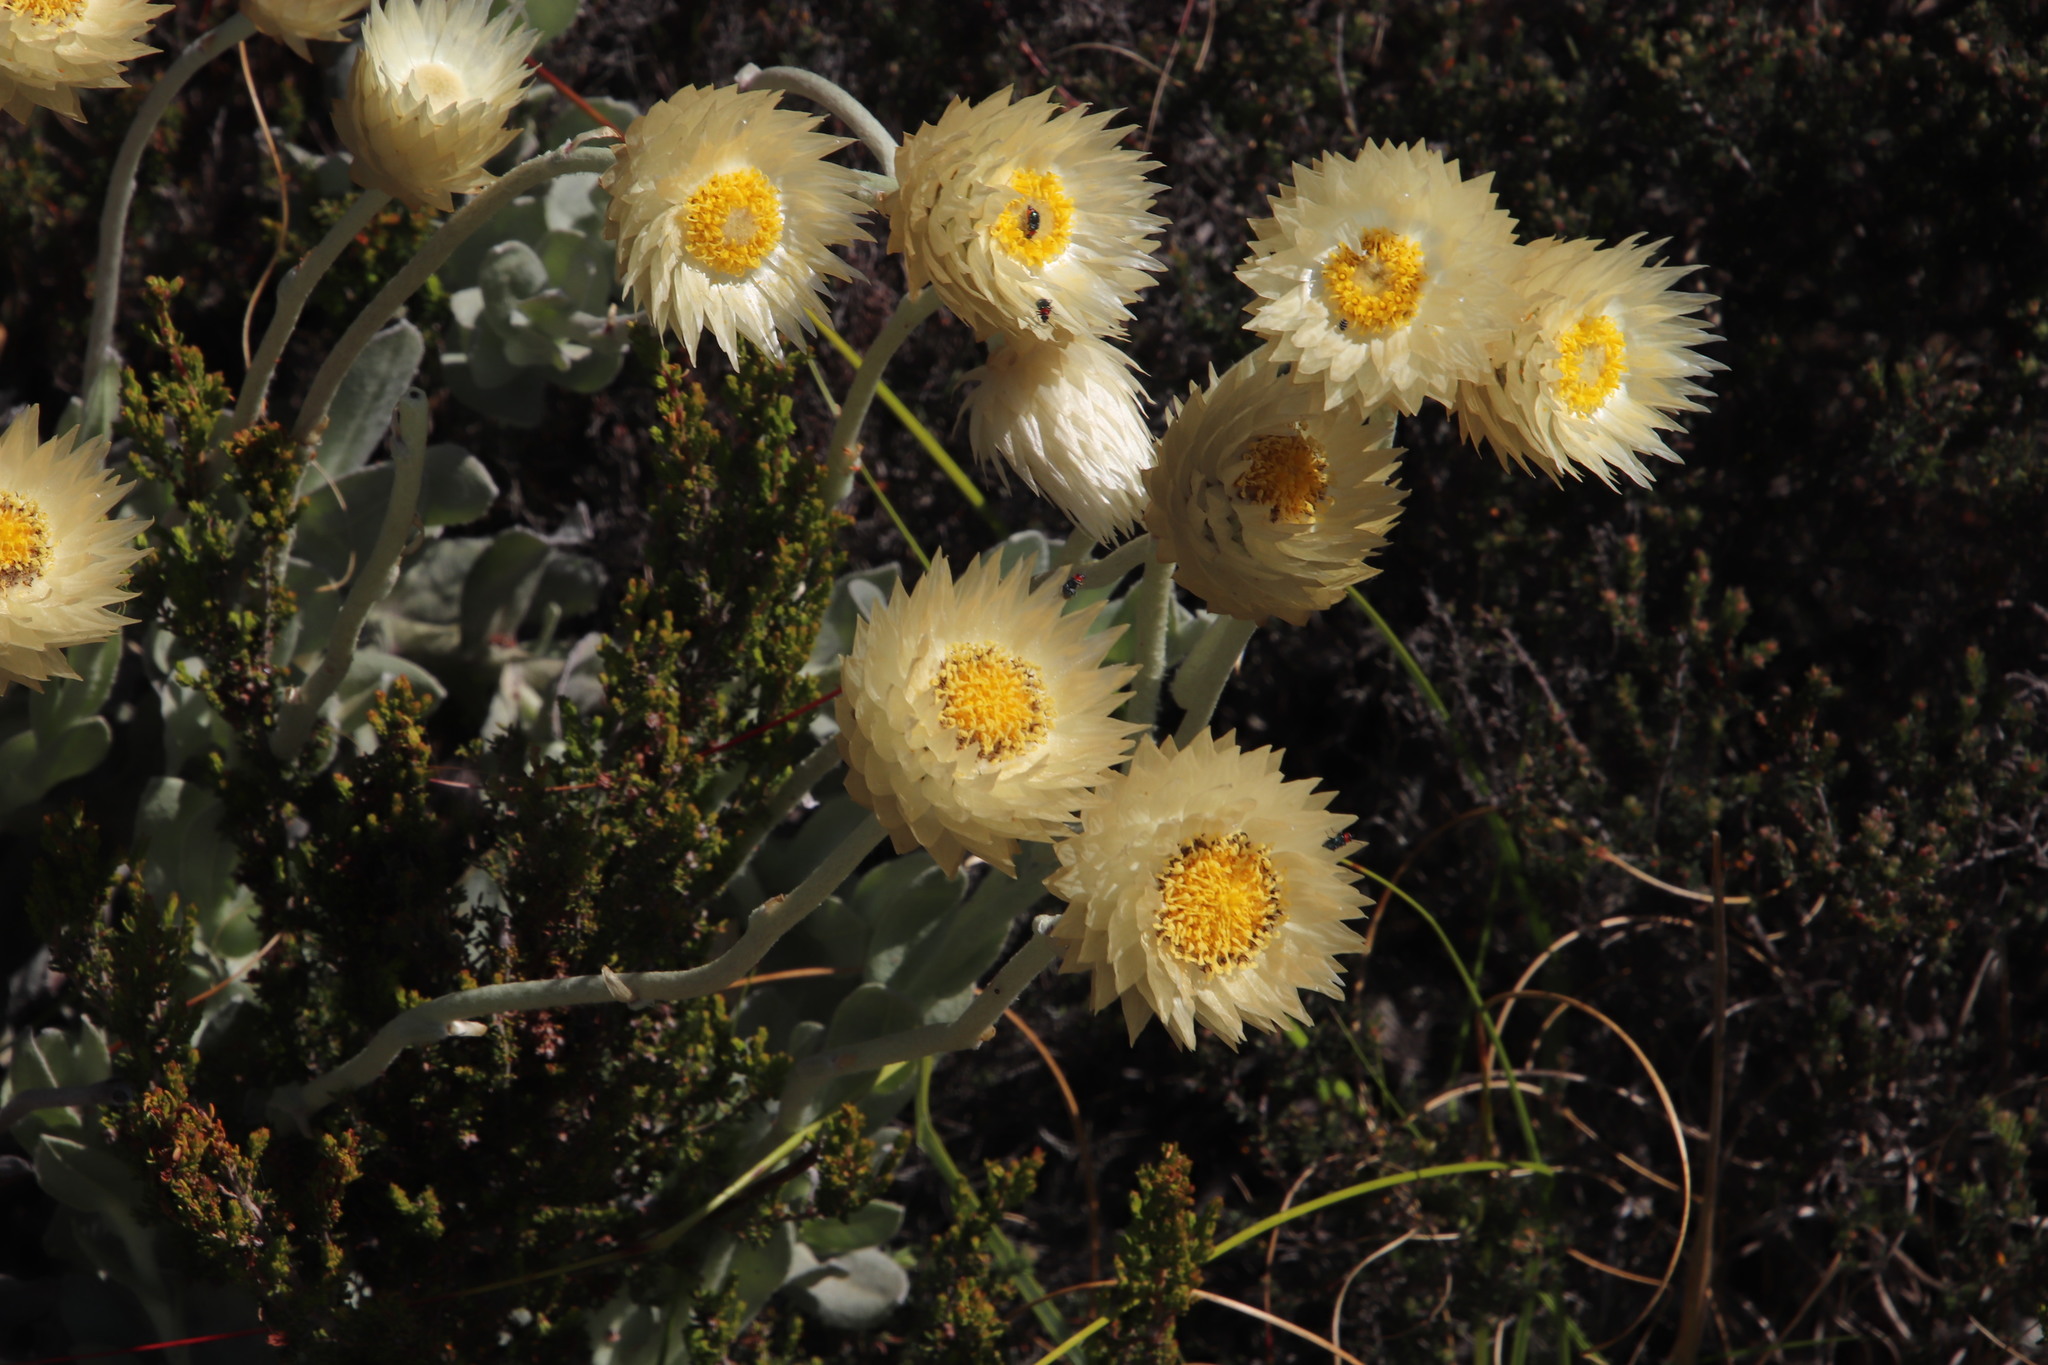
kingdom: Plantae
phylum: Tracheophyta
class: Magnoliopsida
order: Asterales
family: Asteraceae
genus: Syncarpha
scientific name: Syncarpha speciosissima
